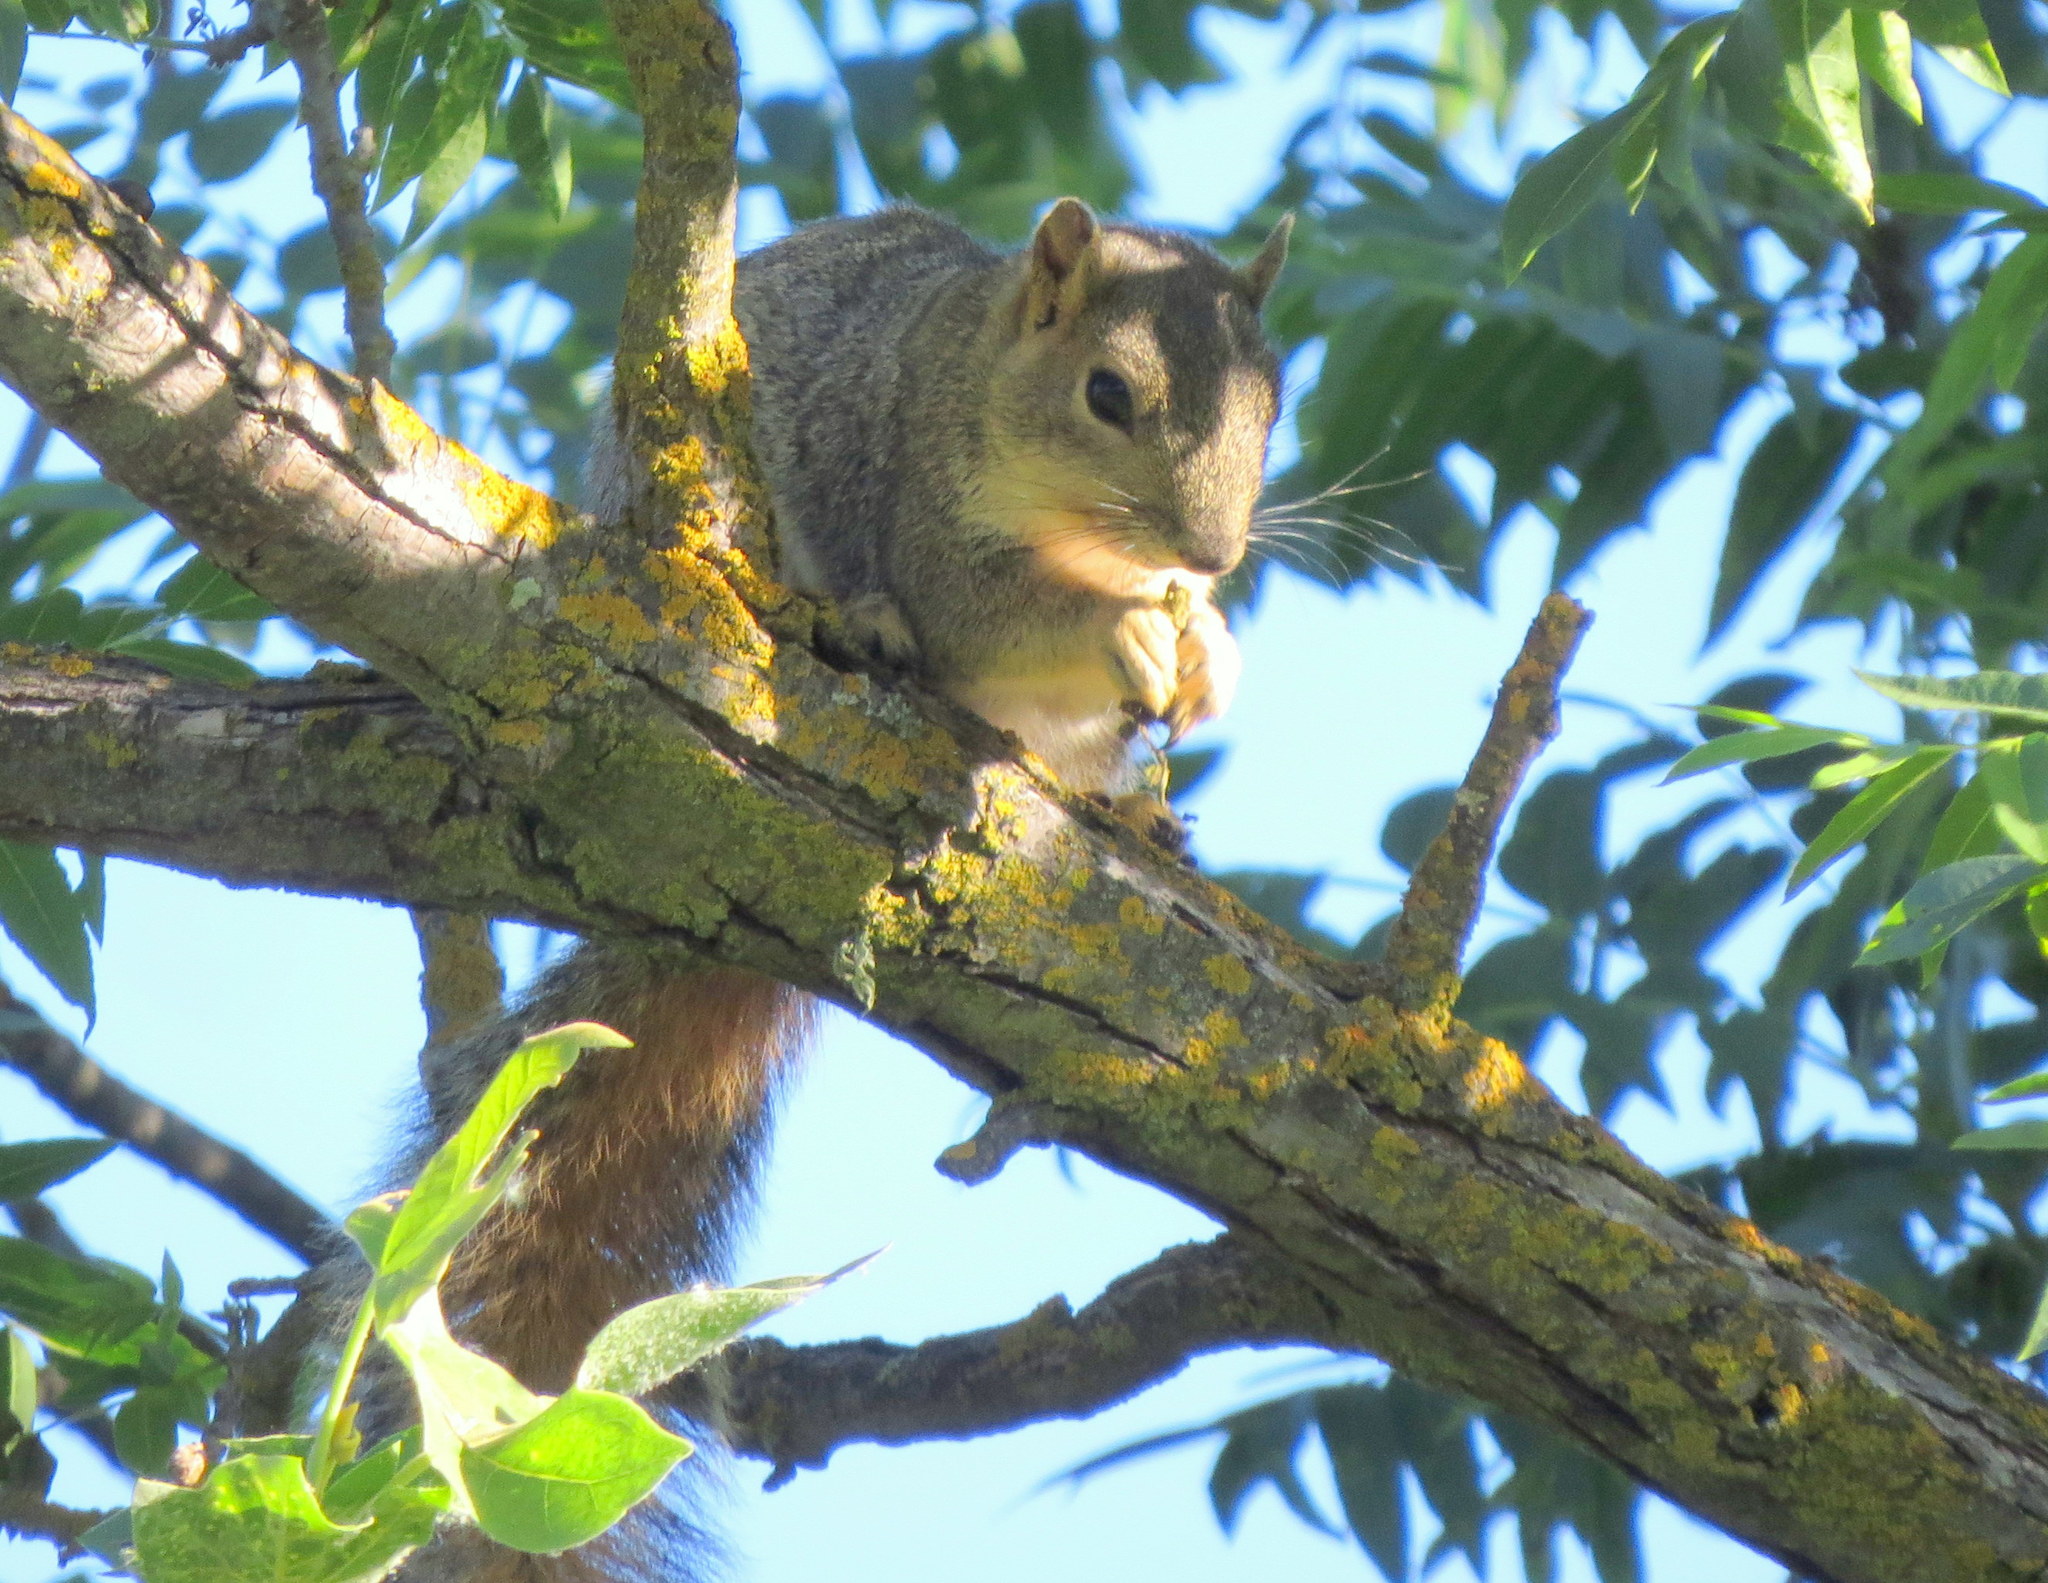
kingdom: Animalia
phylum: Chordata
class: Mammalia
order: Rodentia
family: Sciuridae
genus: Sciurus
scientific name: Sciurus niger
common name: Fox squirrel
